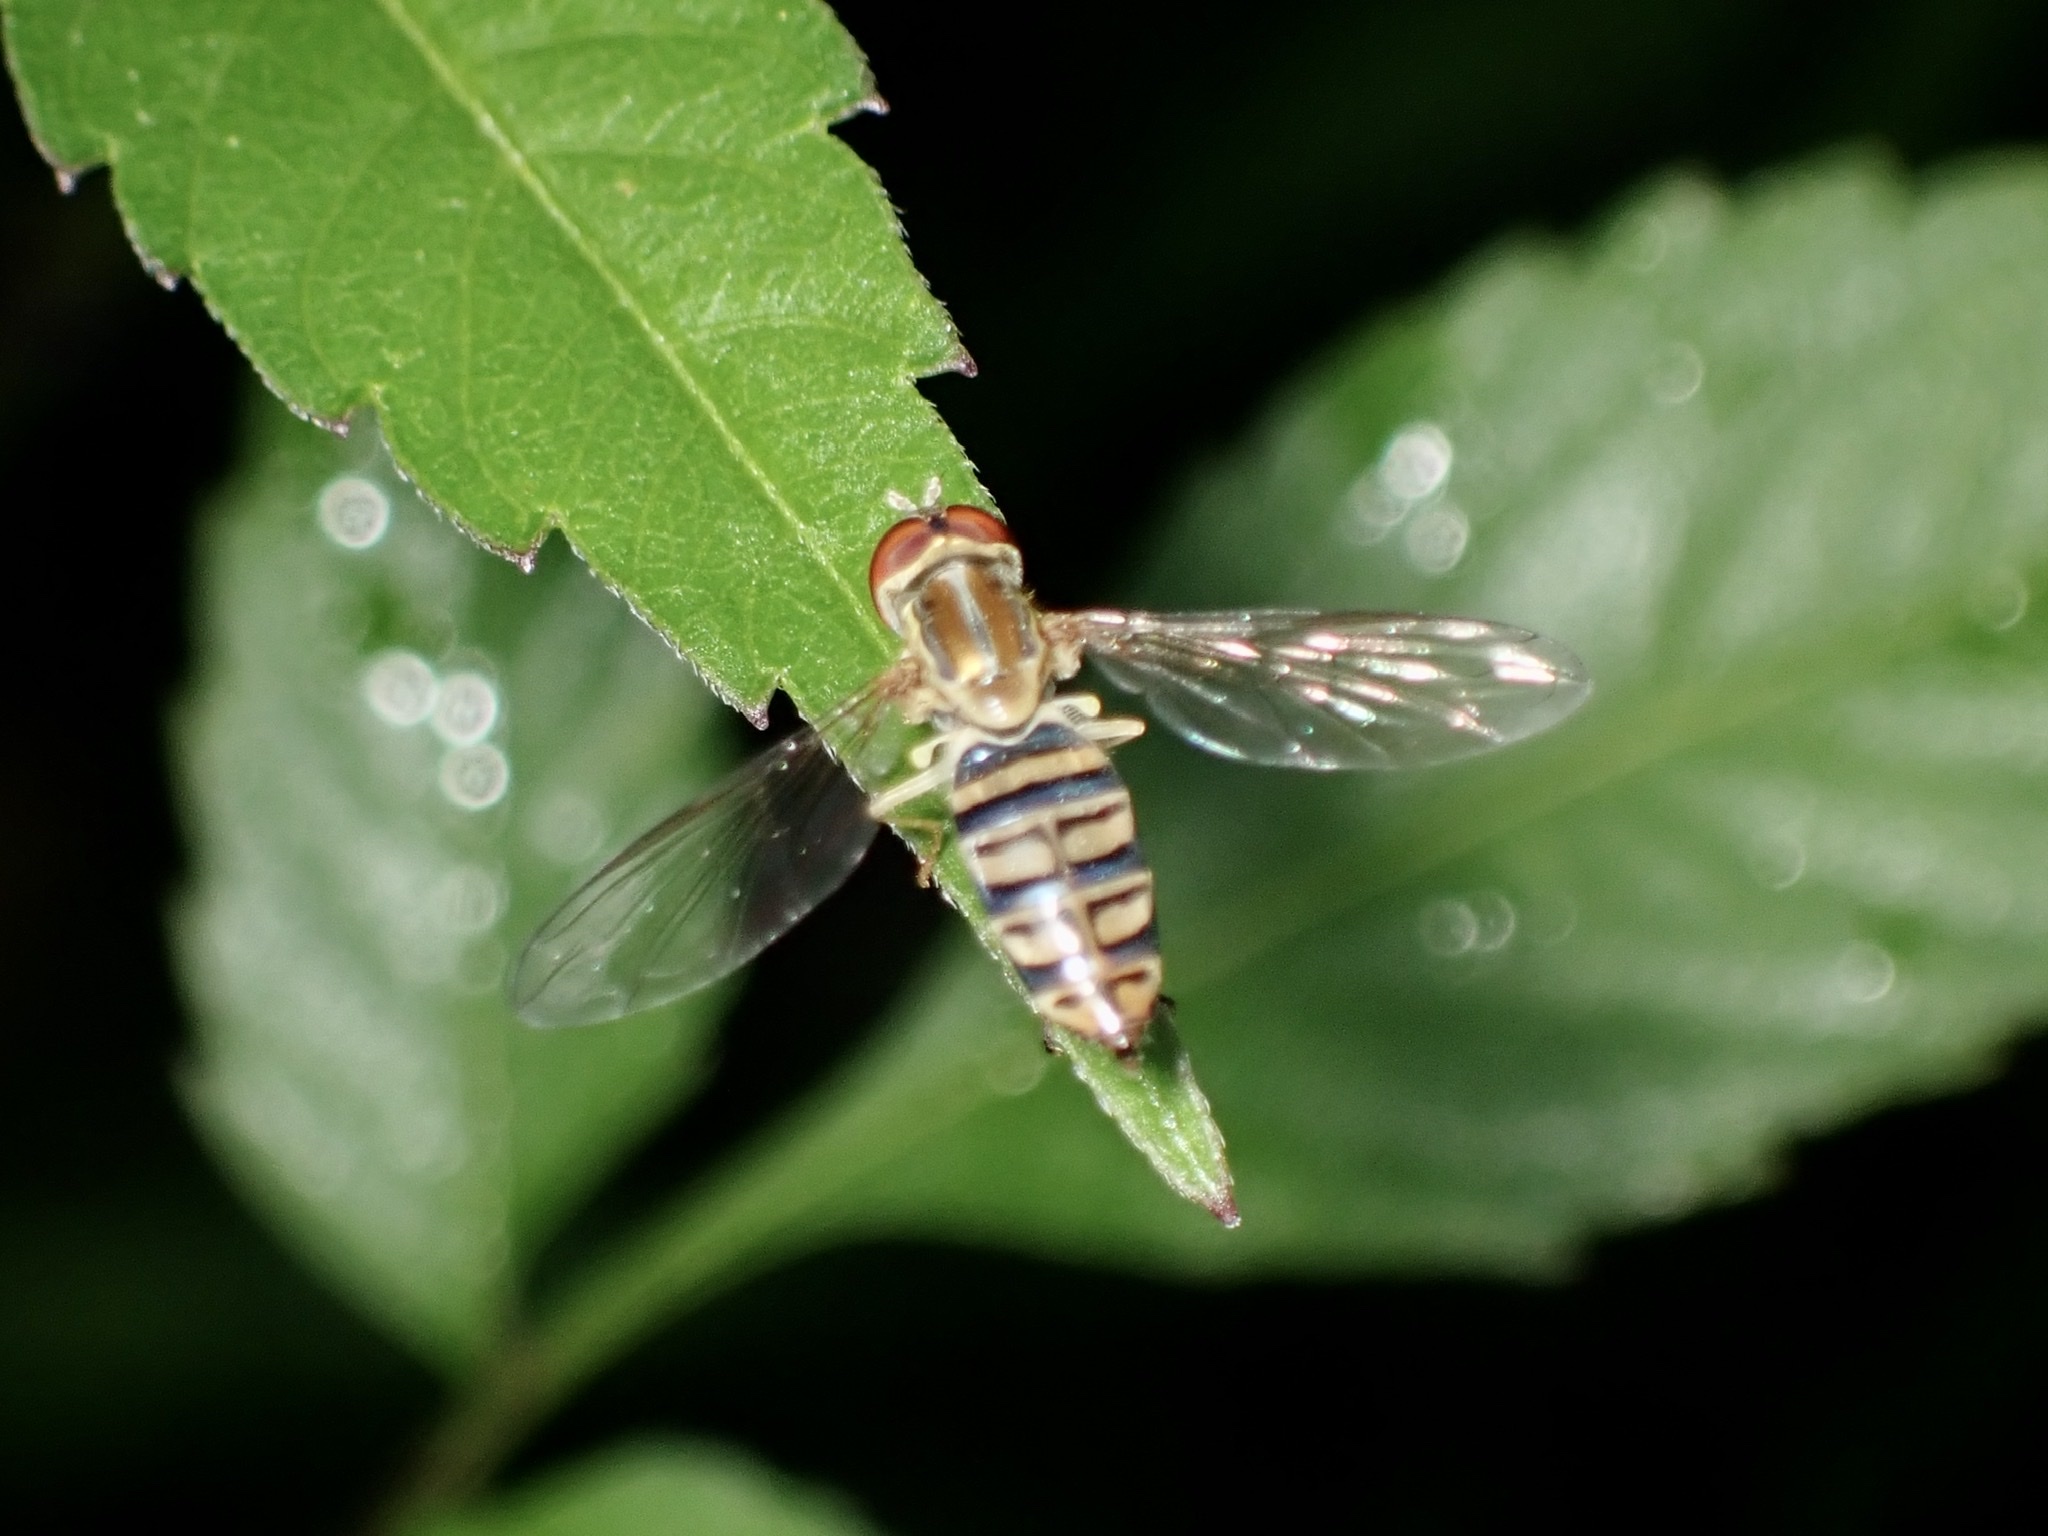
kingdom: Animalia
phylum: Arthropoda
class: Insecta
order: Diptera
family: Syrphidae
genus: Toxomerus
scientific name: Toxomerus politus
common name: Maize calligrapher
